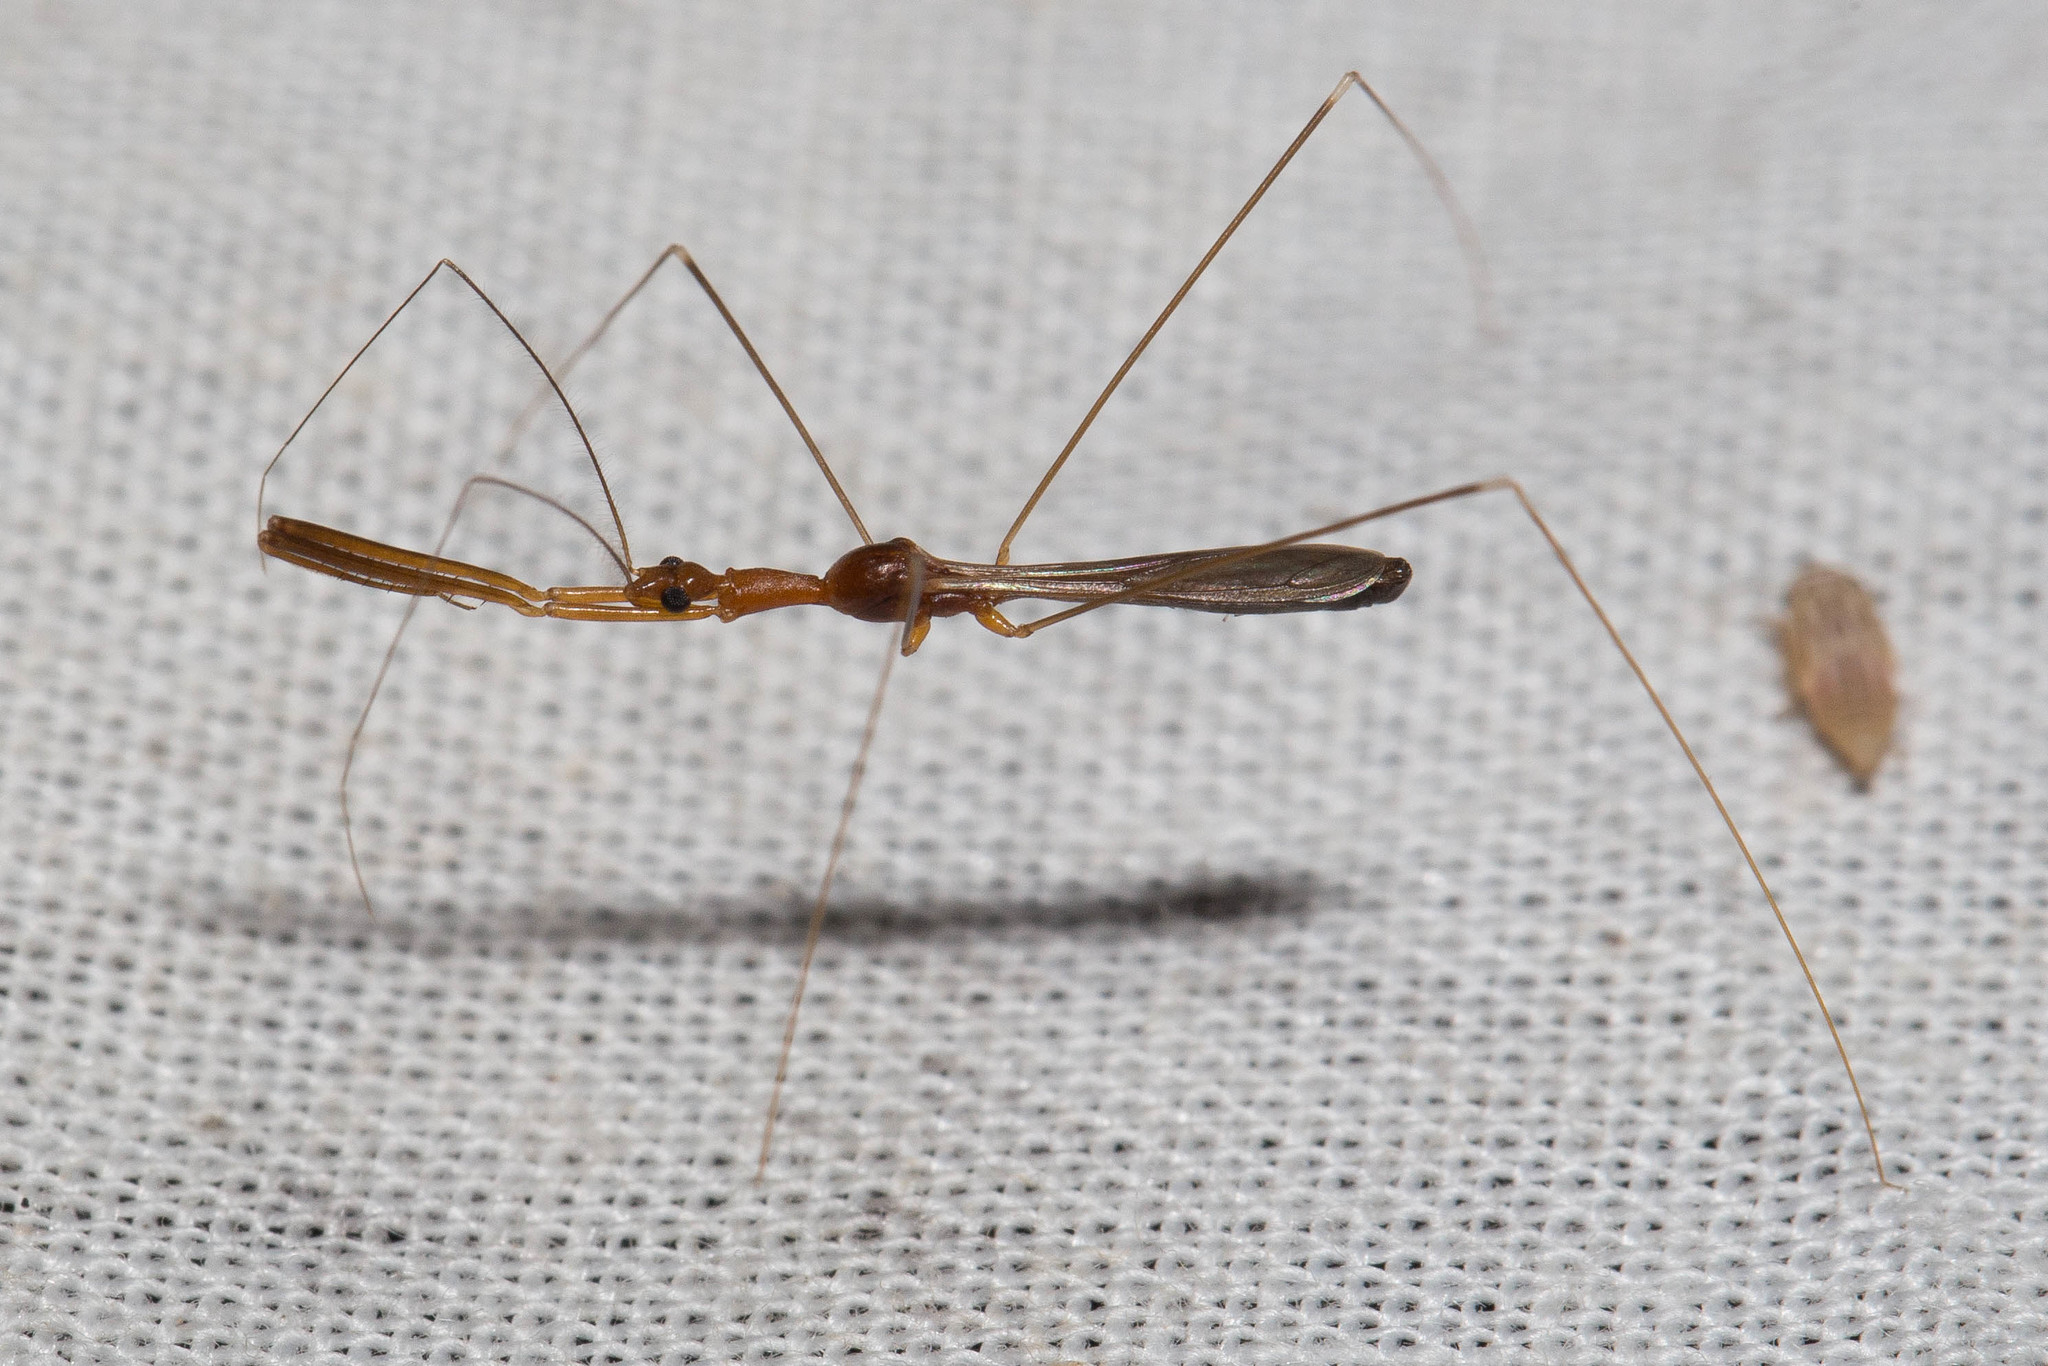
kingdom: Animalia
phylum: Arthropoda
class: Insecta
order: Hemiptera
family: Reduviidae
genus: Gardena
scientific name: Gardena elkinsi
